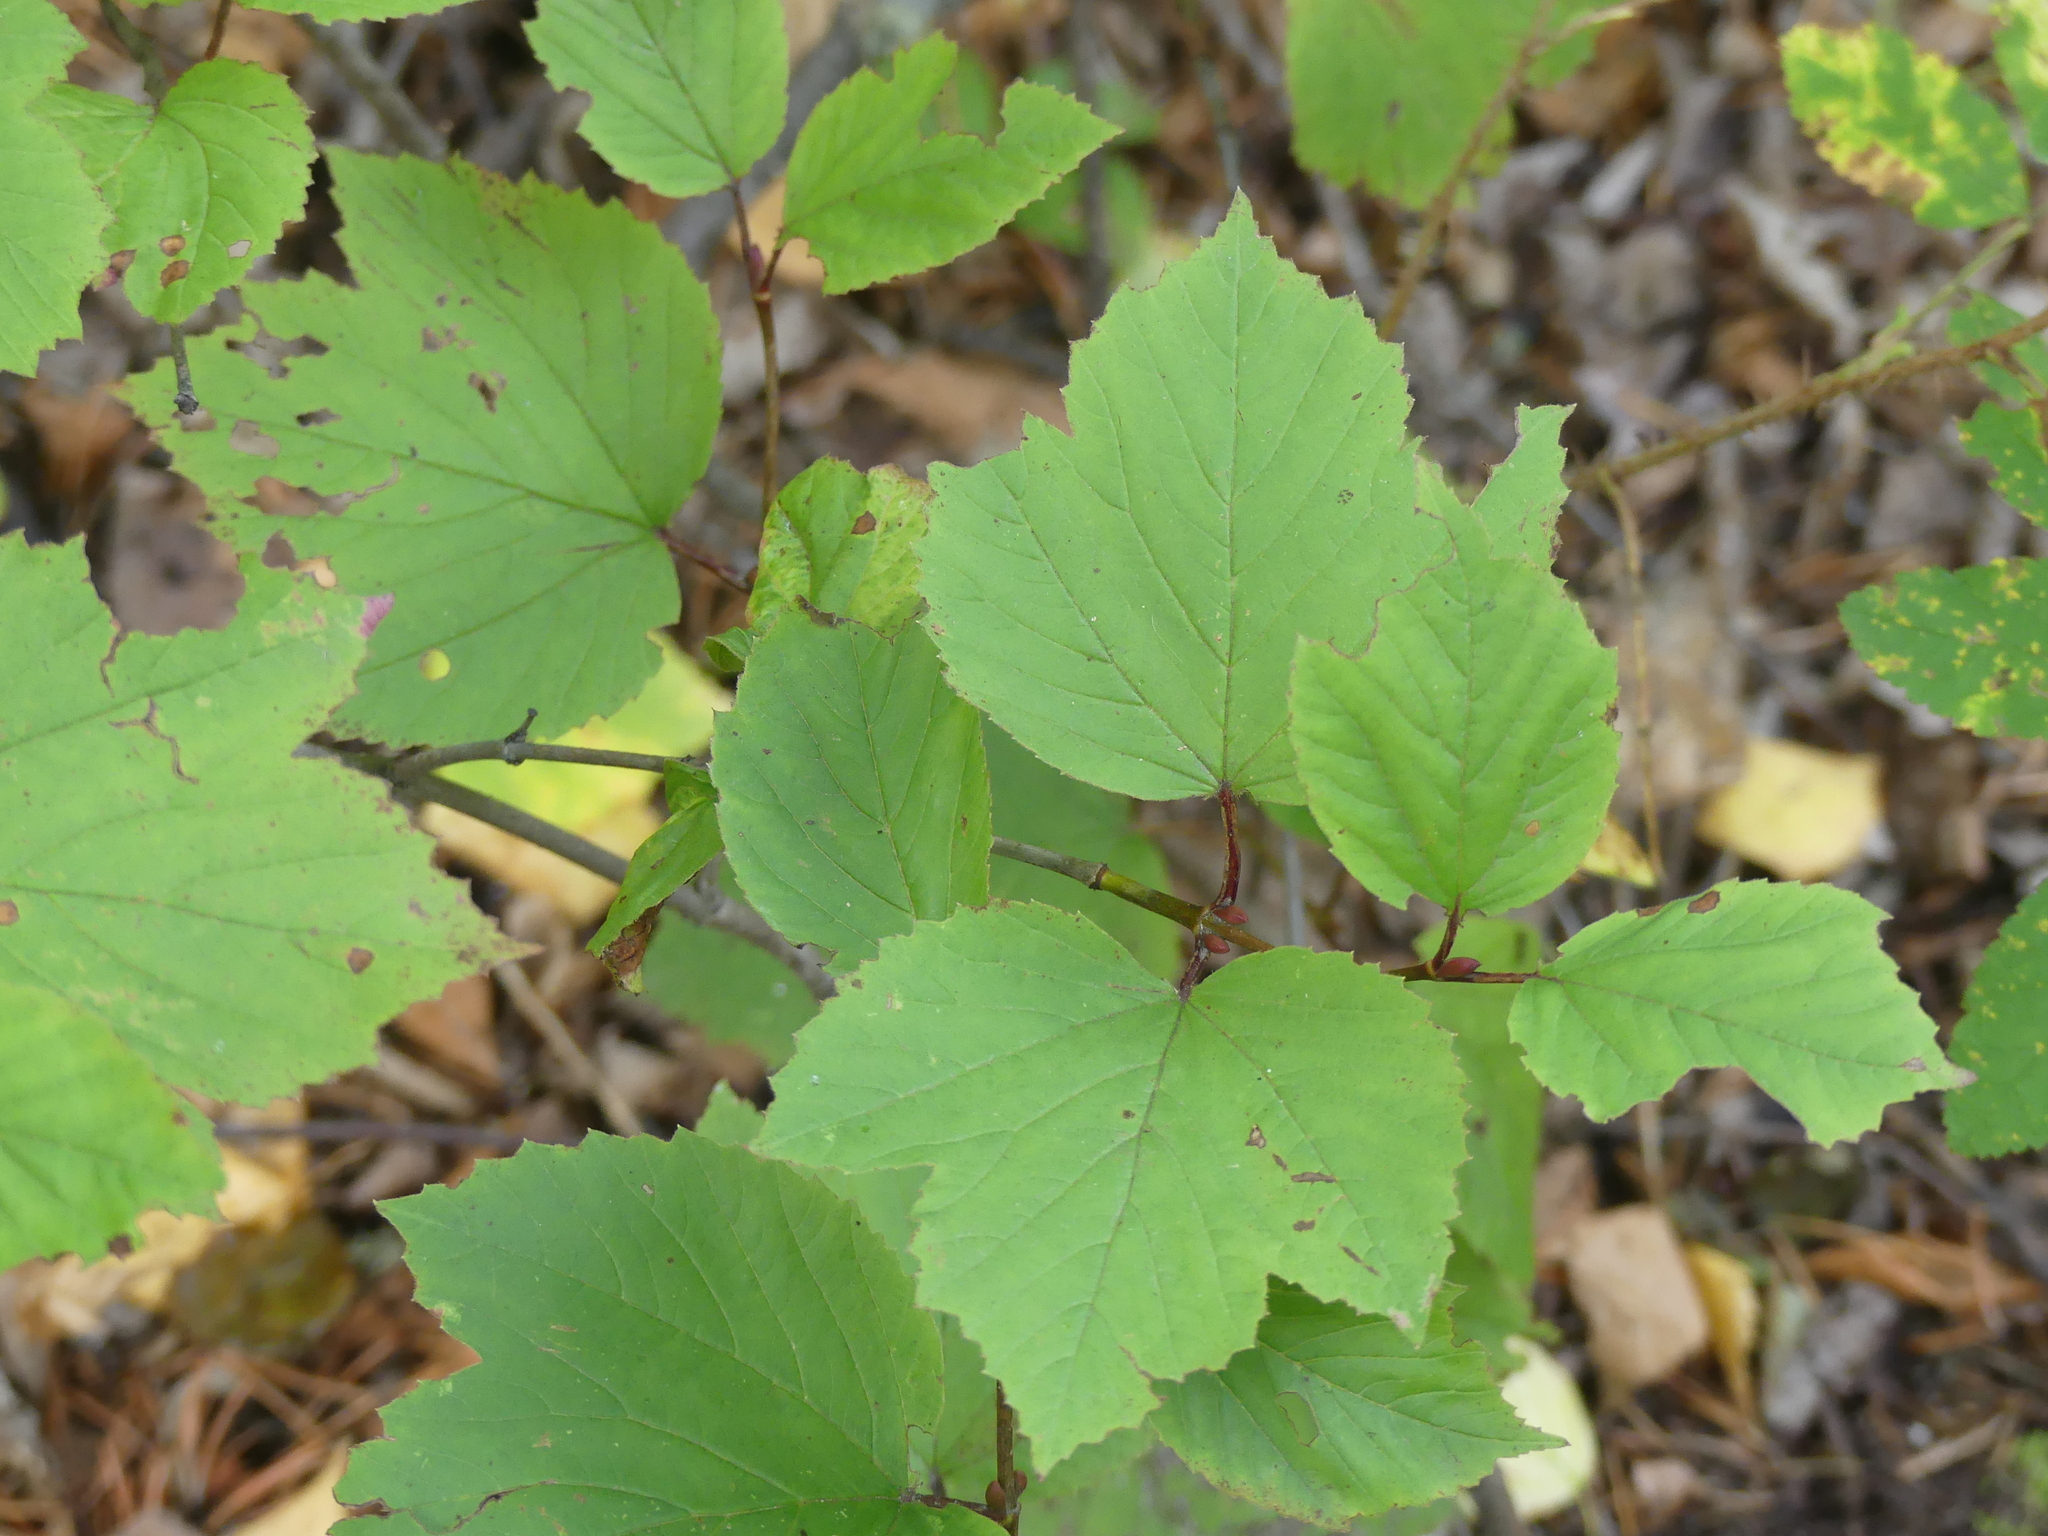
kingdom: Plantae
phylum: Tracheophyta
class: Magnoliopsida
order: Dipsacales
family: Viburnaceae
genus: Viburnum
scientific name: Viburnum edule
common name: Mooseberry
